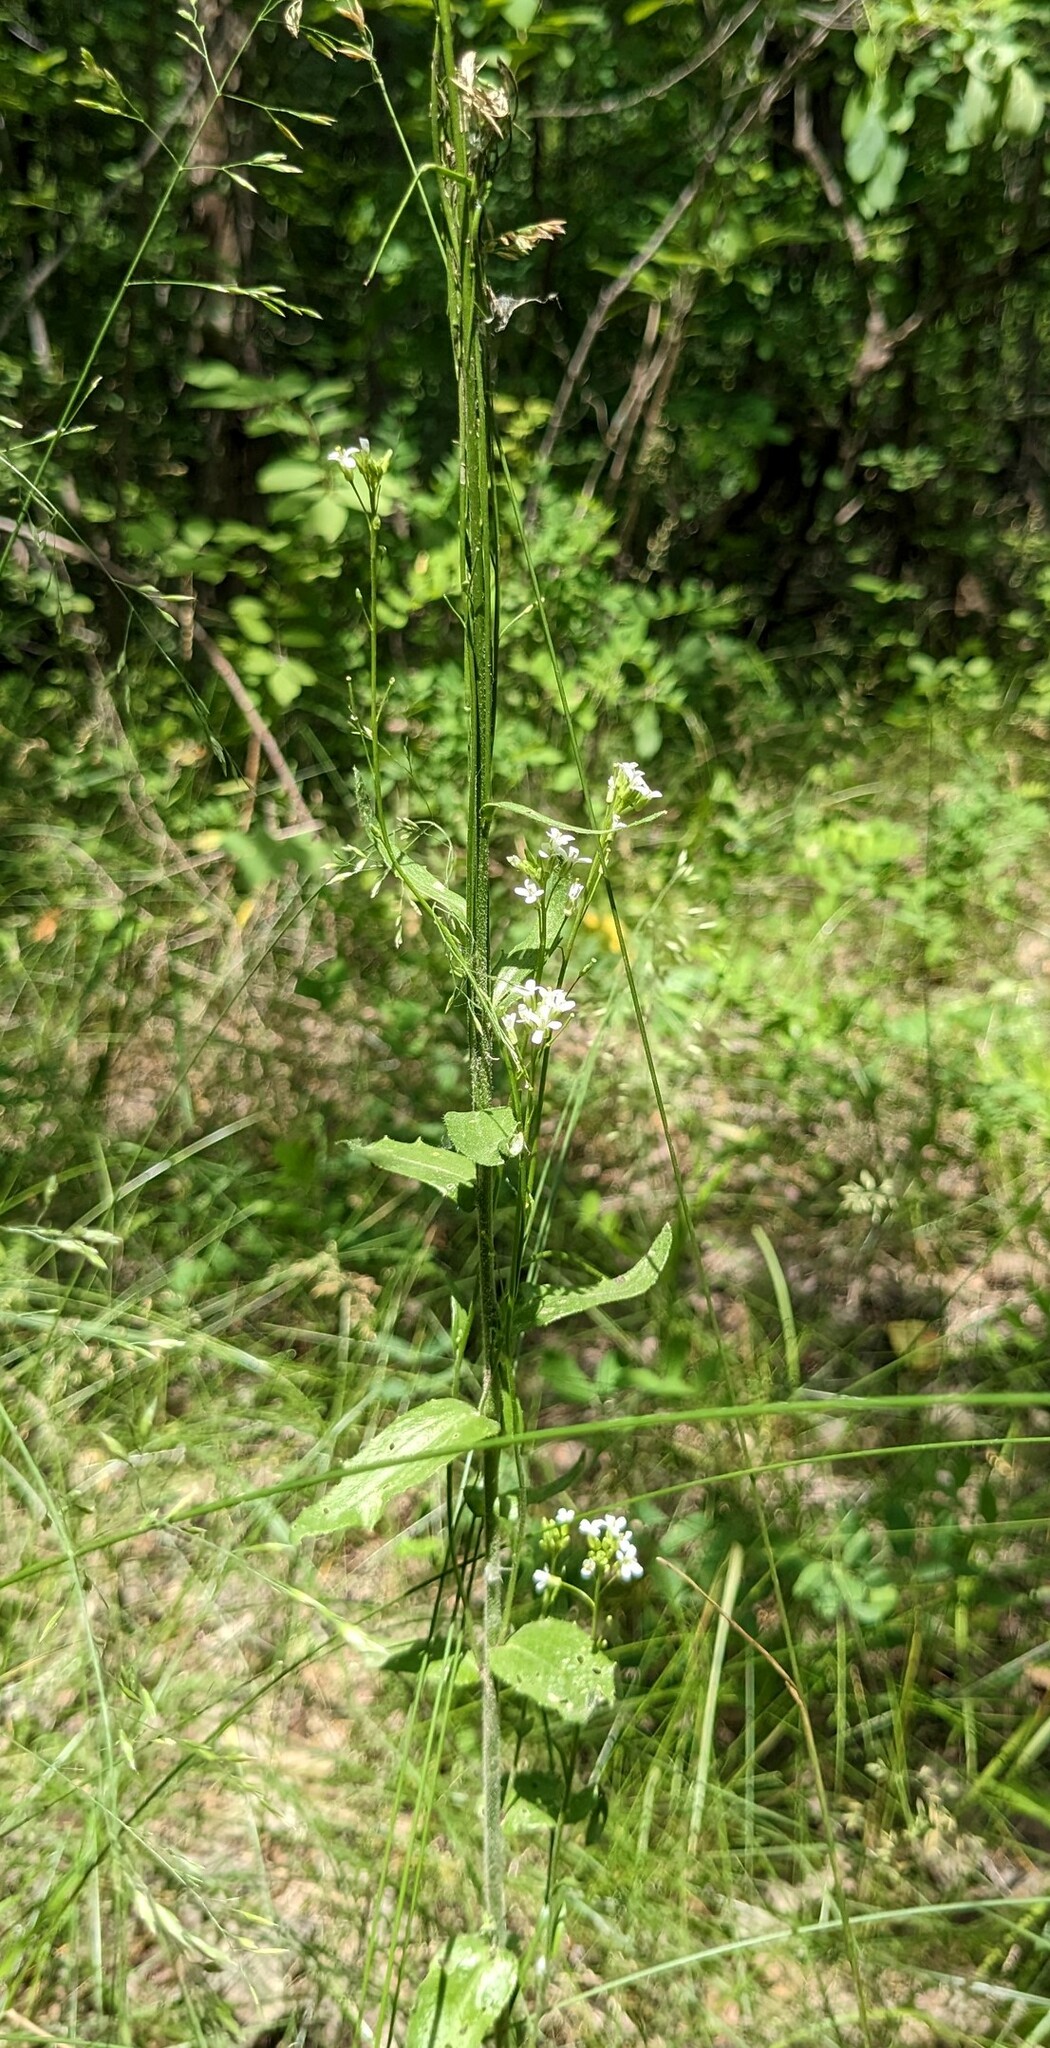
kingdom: Plantae
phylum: Tracheophyta
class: Magnoliopsida
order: Brassicales
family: Brassicaceae
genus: Arabis
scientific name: Arabis borealis
